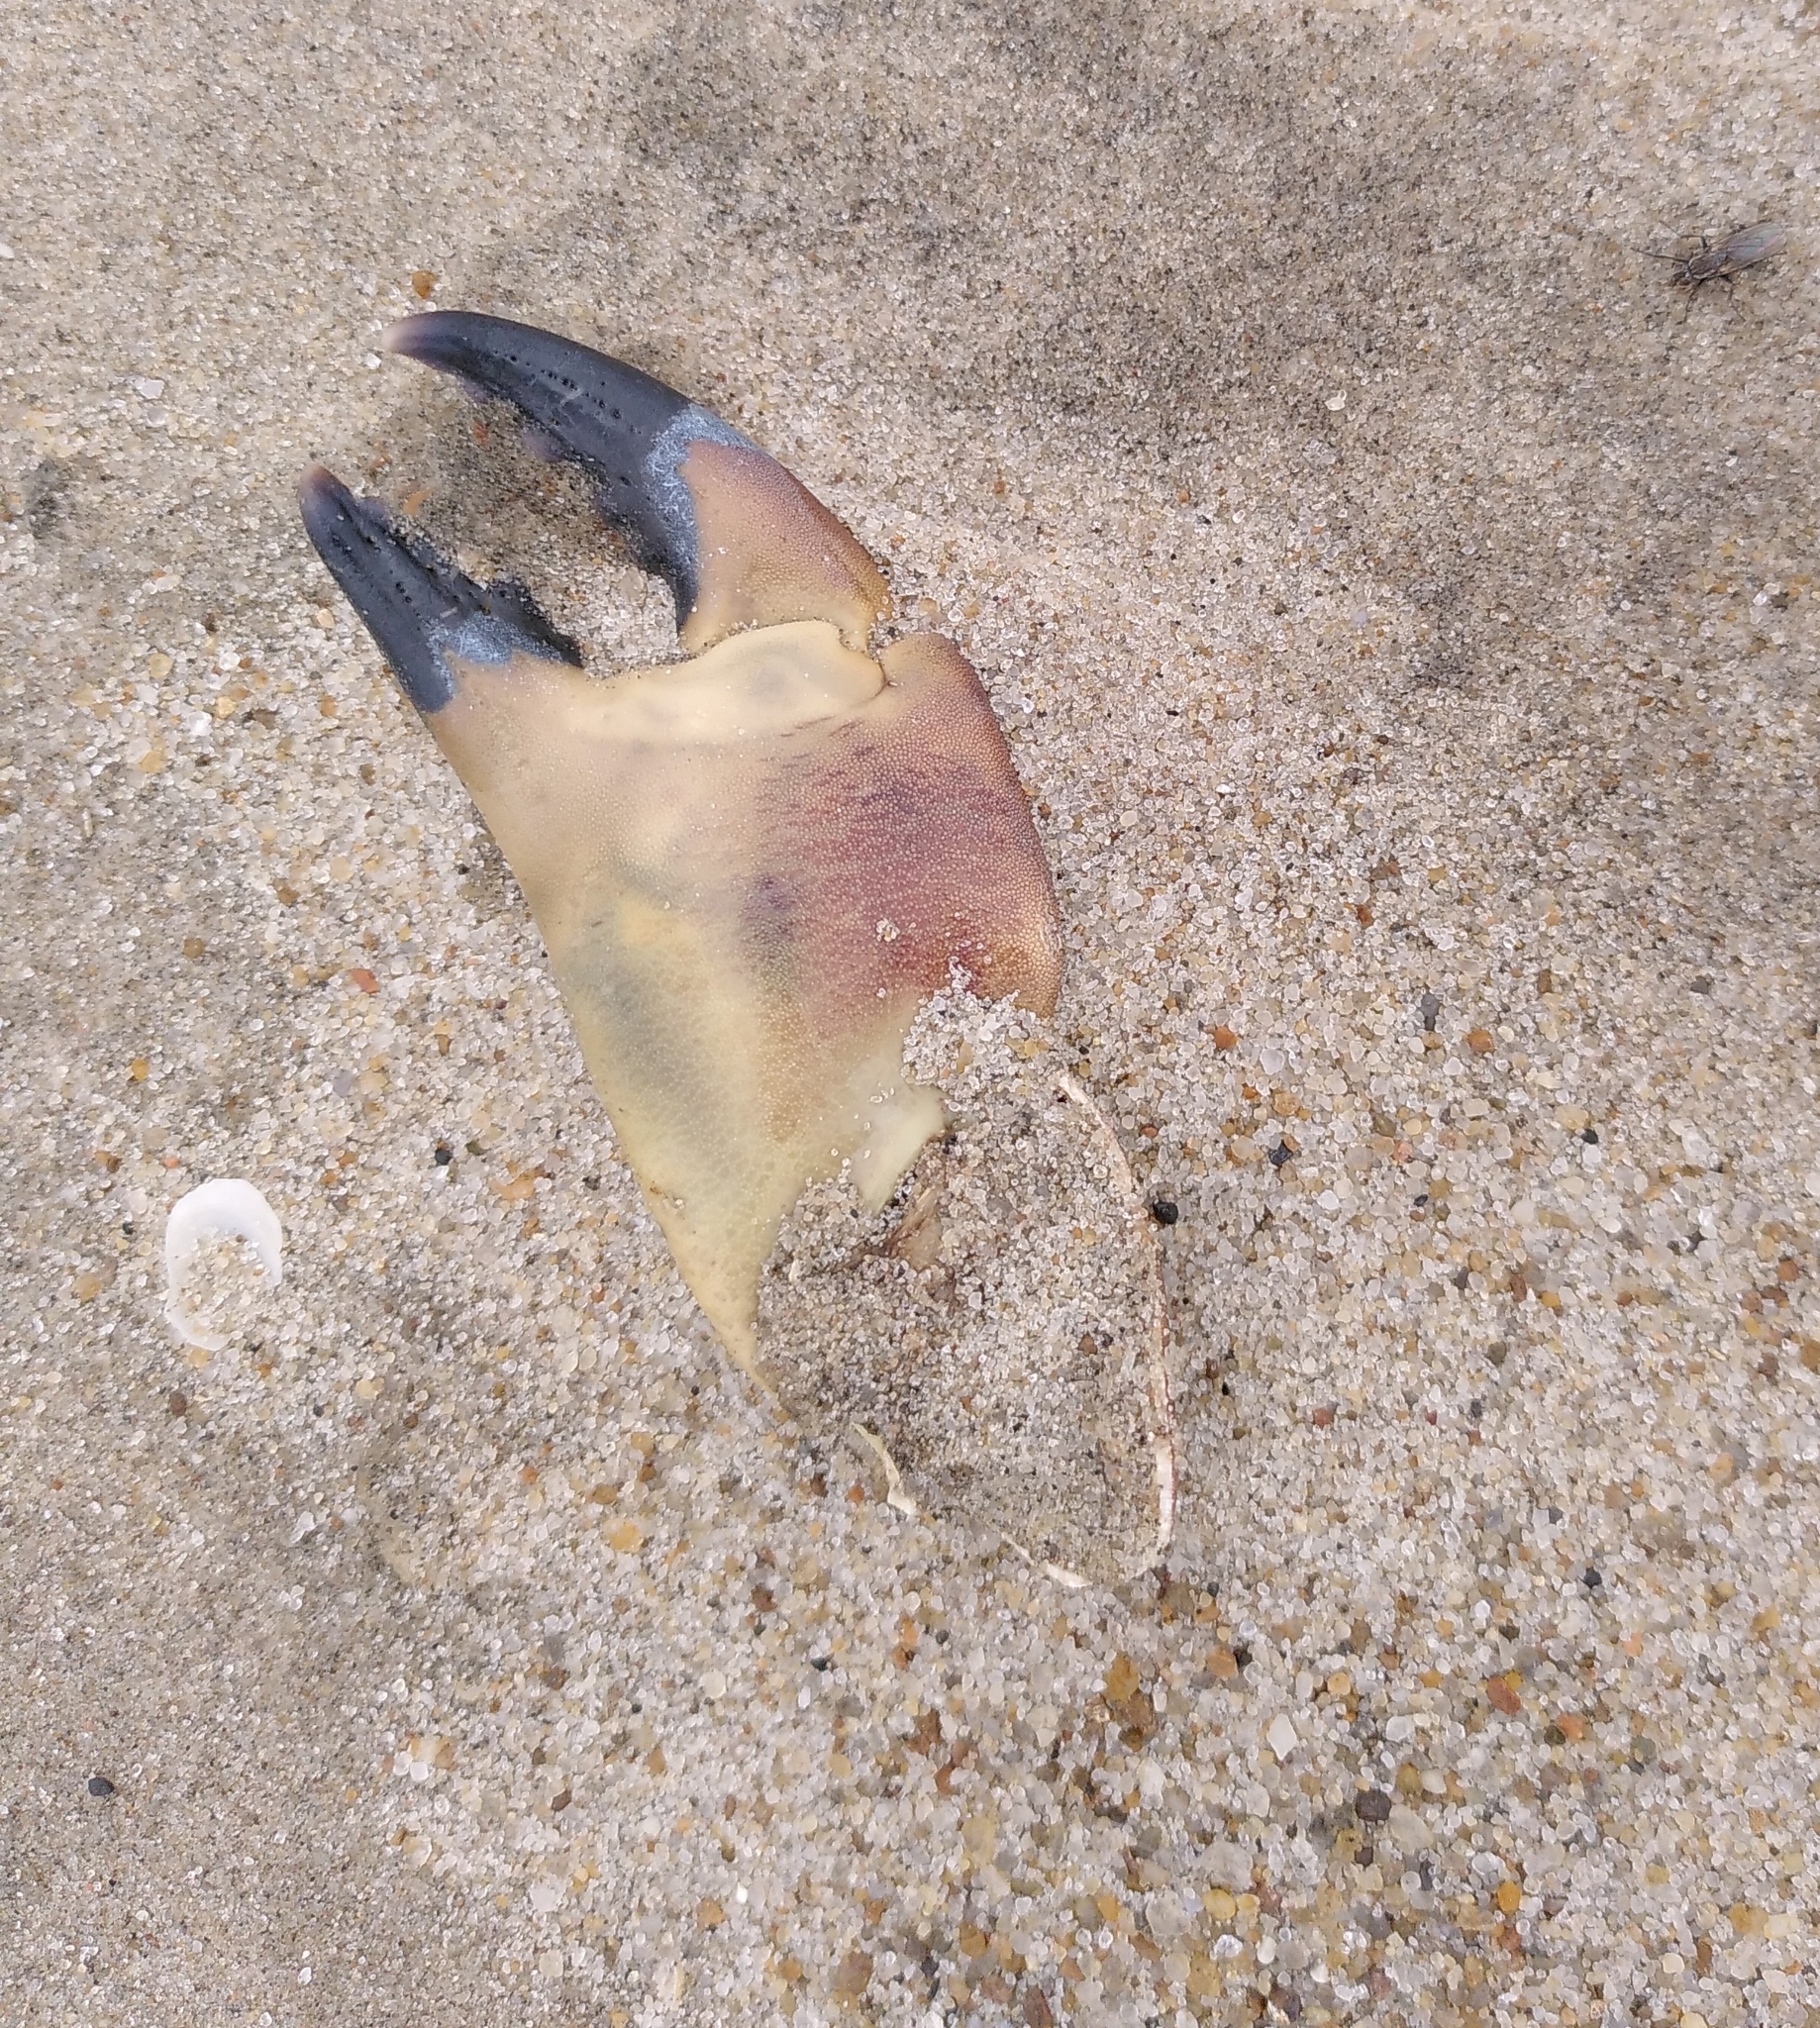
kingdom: Animalia
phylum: Arthropoda
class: Malacostraca
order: Decapoda
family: Cancridae
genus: Cancer
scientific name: Cancer pagurus
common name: Edible crab
